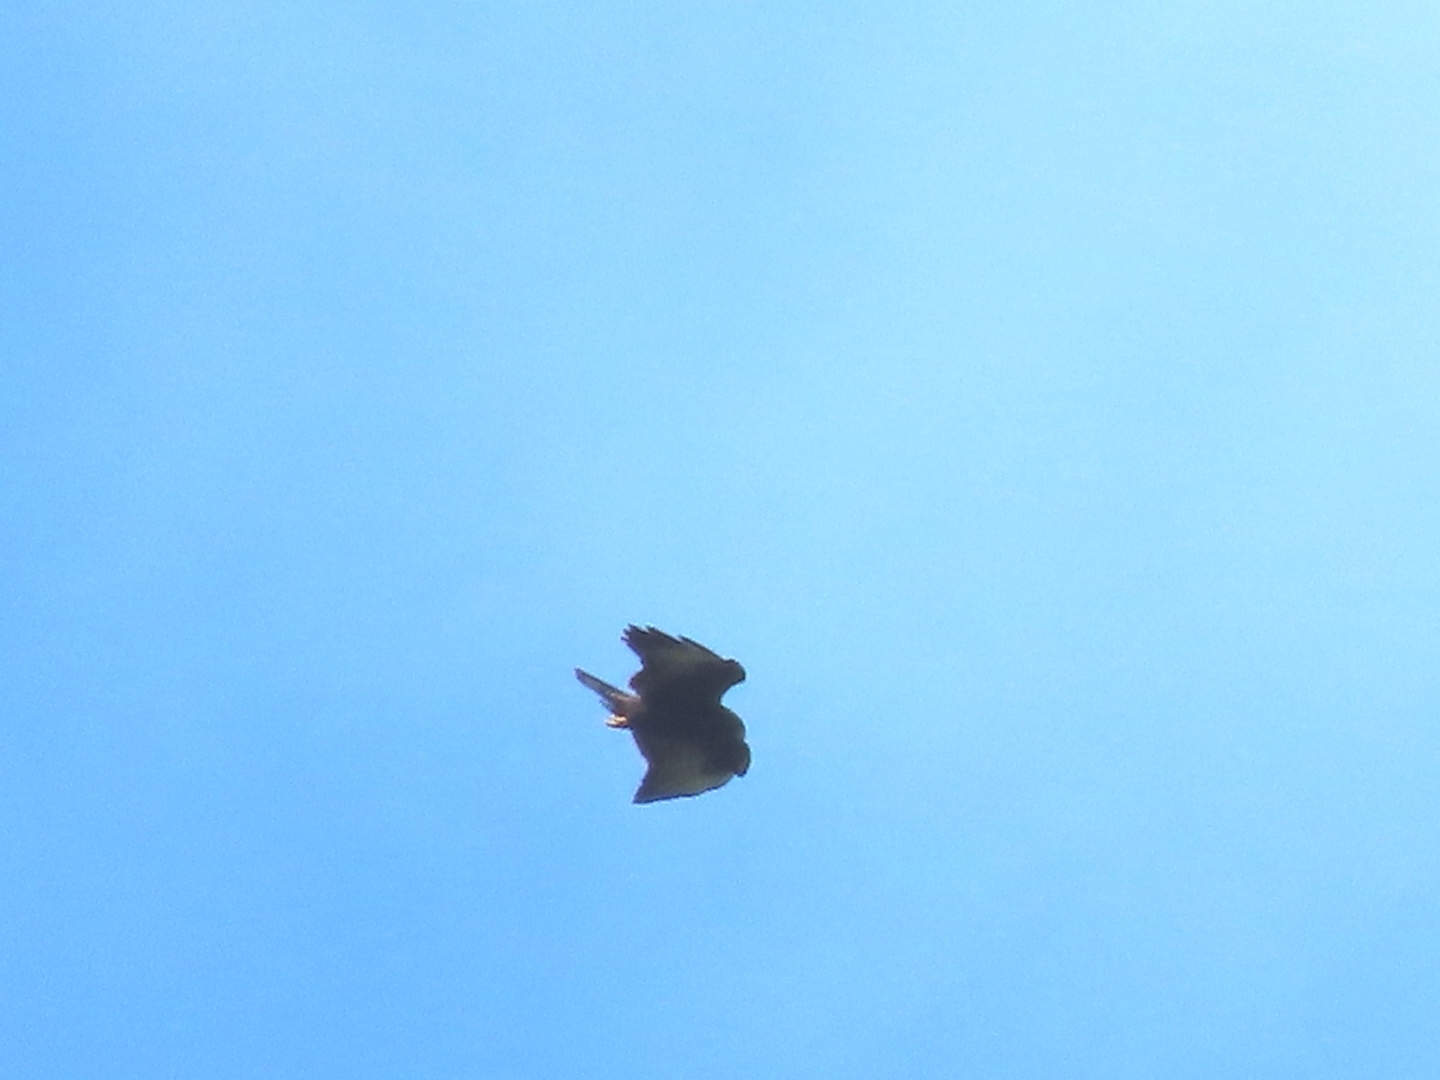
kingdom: Animalia
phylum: Chordata
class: Aves
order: Accipitriformes
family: Accipitridae
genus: Buteo
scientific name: Buteo brachyurus
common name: Short-tailed hawk
